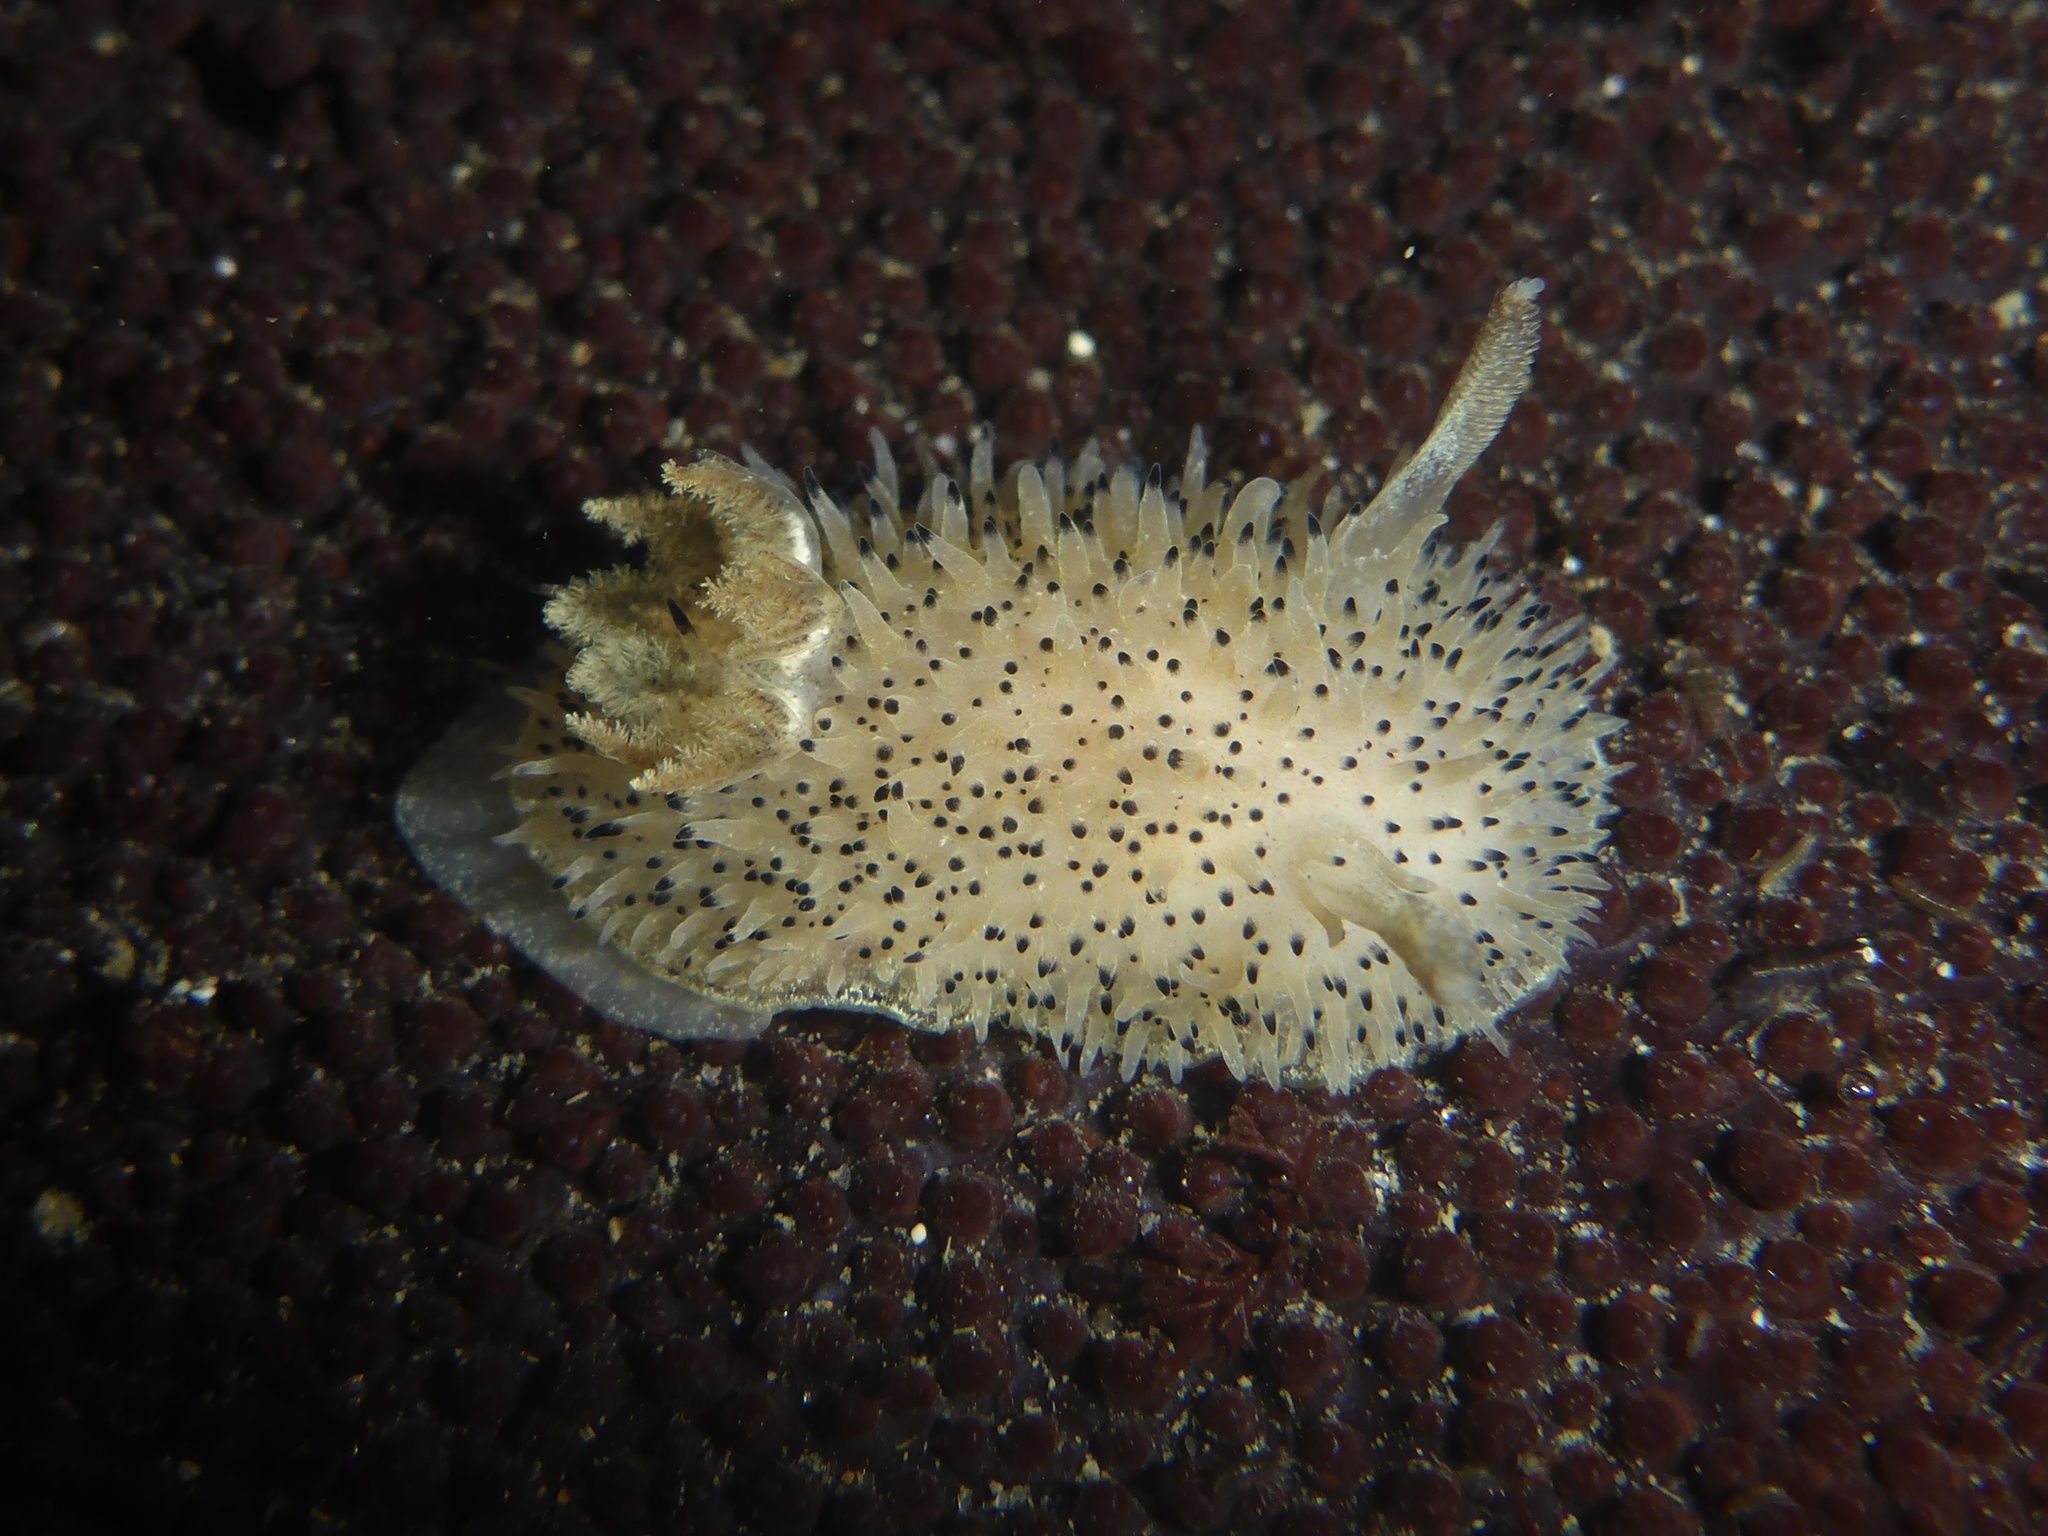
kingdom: Animalia
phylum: Mollusca
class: Gastropoda
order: Nudibranchia
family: Onchidorididae
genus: Acanthodoris
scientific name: Acanthodoris rhodoceras
